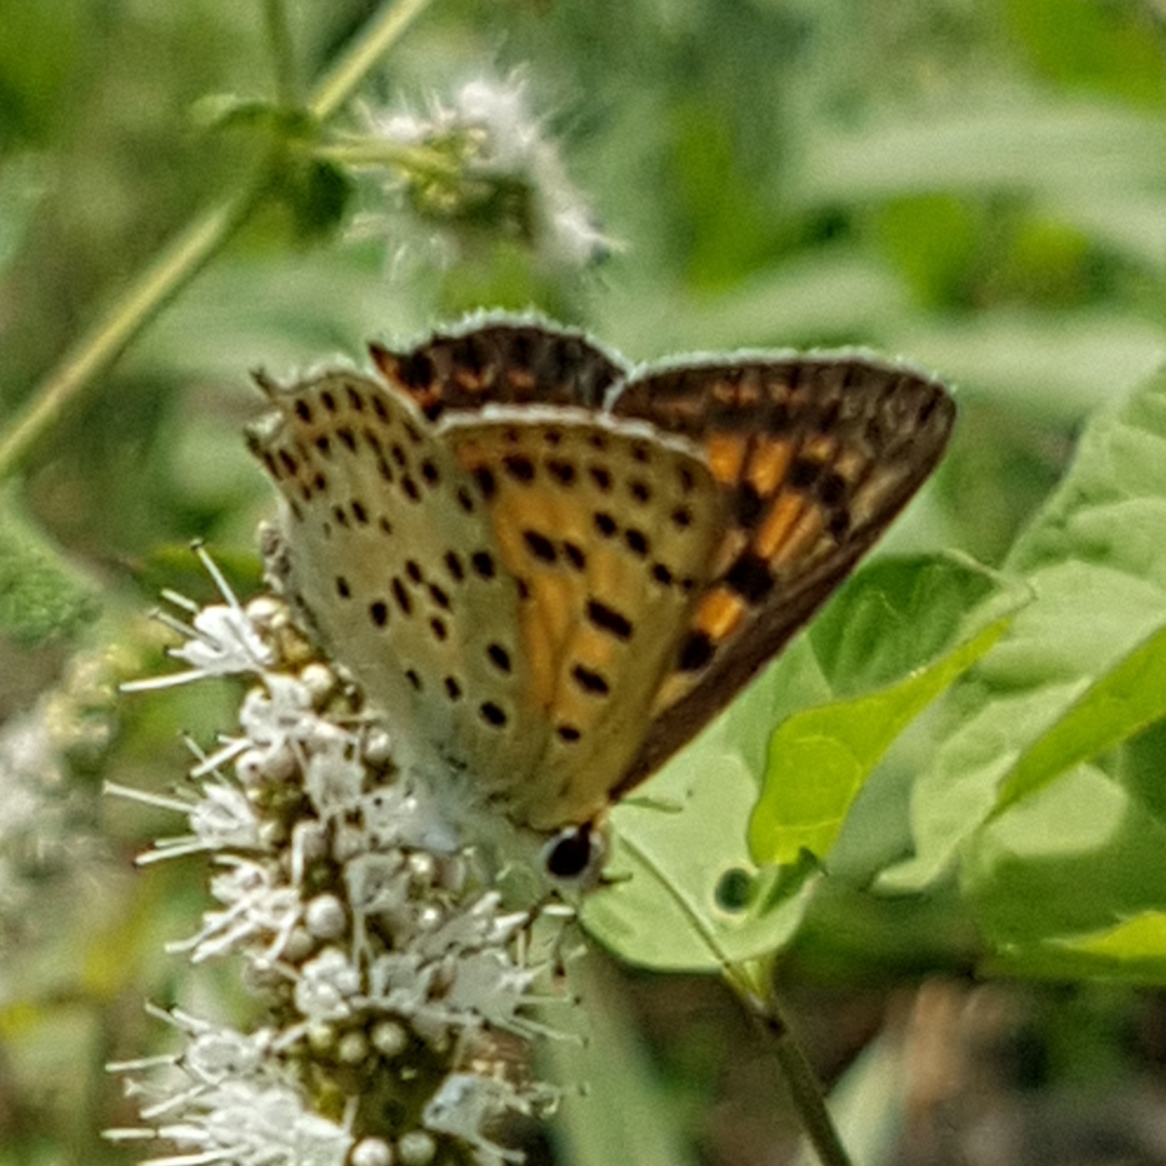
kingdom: Animalia
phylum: Arthropoda
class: Insecta
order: Lepidoptera
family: Lycaenidae
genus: Lycaena
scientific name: Lycaena bleusei
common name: Iberian sooty copper
